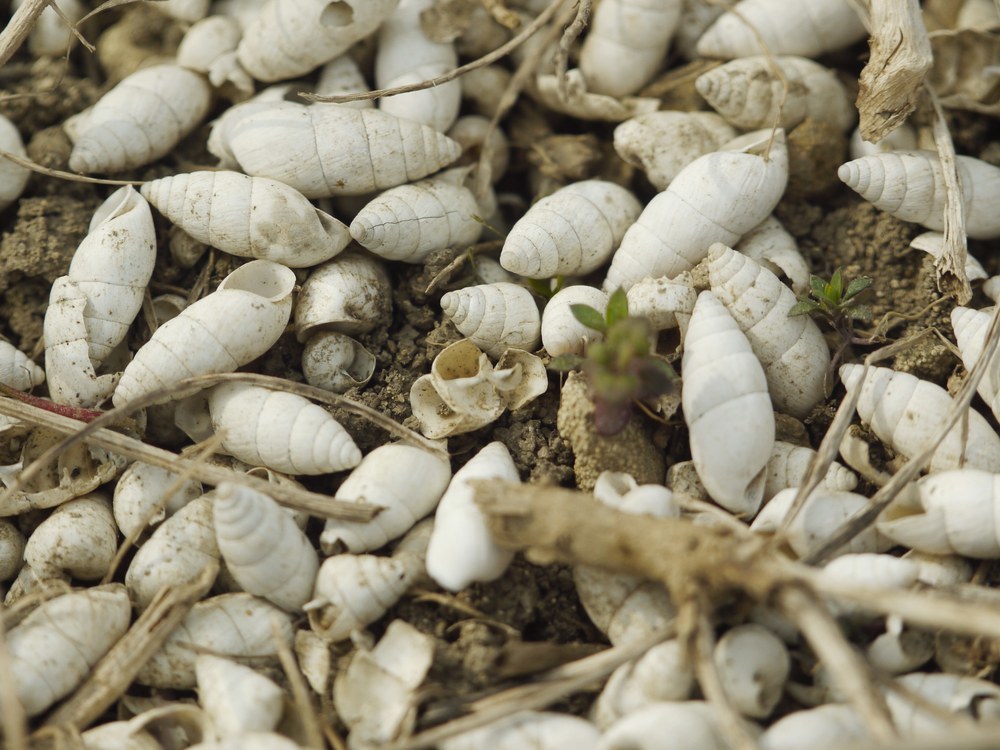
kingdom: Animalia
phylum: Mollusca
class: Gastropoda
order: Stylommatophora
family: Enidae
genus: Brephulopsis
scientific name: Brephulopsis cylindrica
